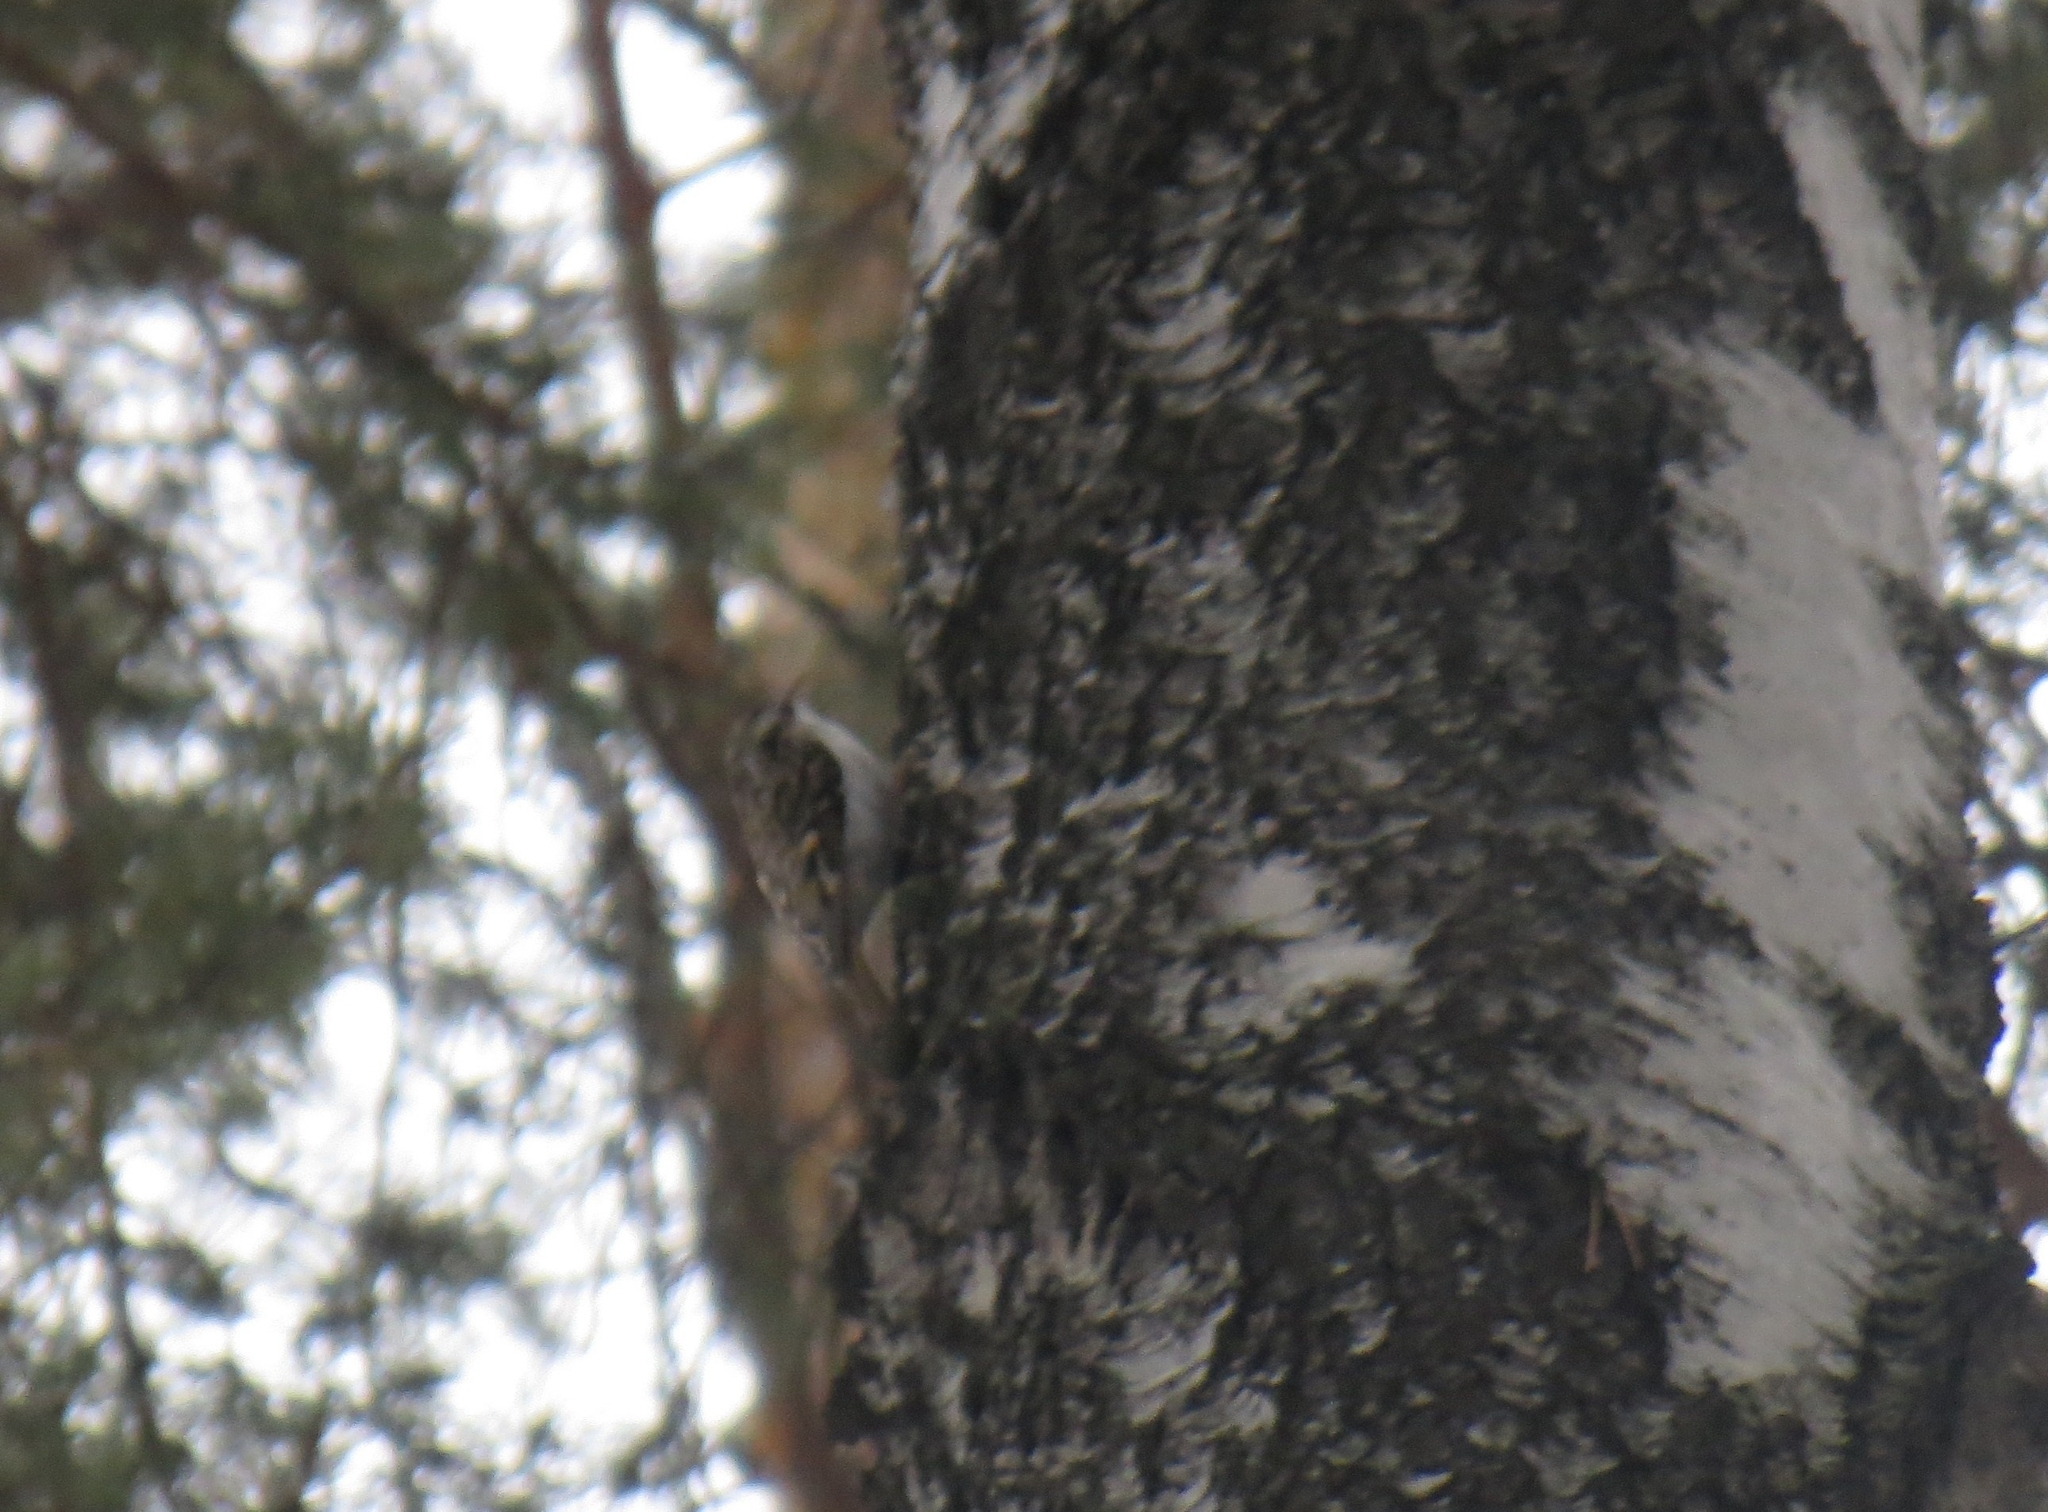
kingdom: Animalia
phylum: Chordata
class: Aves
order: Passeriformes
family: Certhiidae
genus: Certhia
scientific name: Certhia familiaris
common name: Eurasian treecreeper
